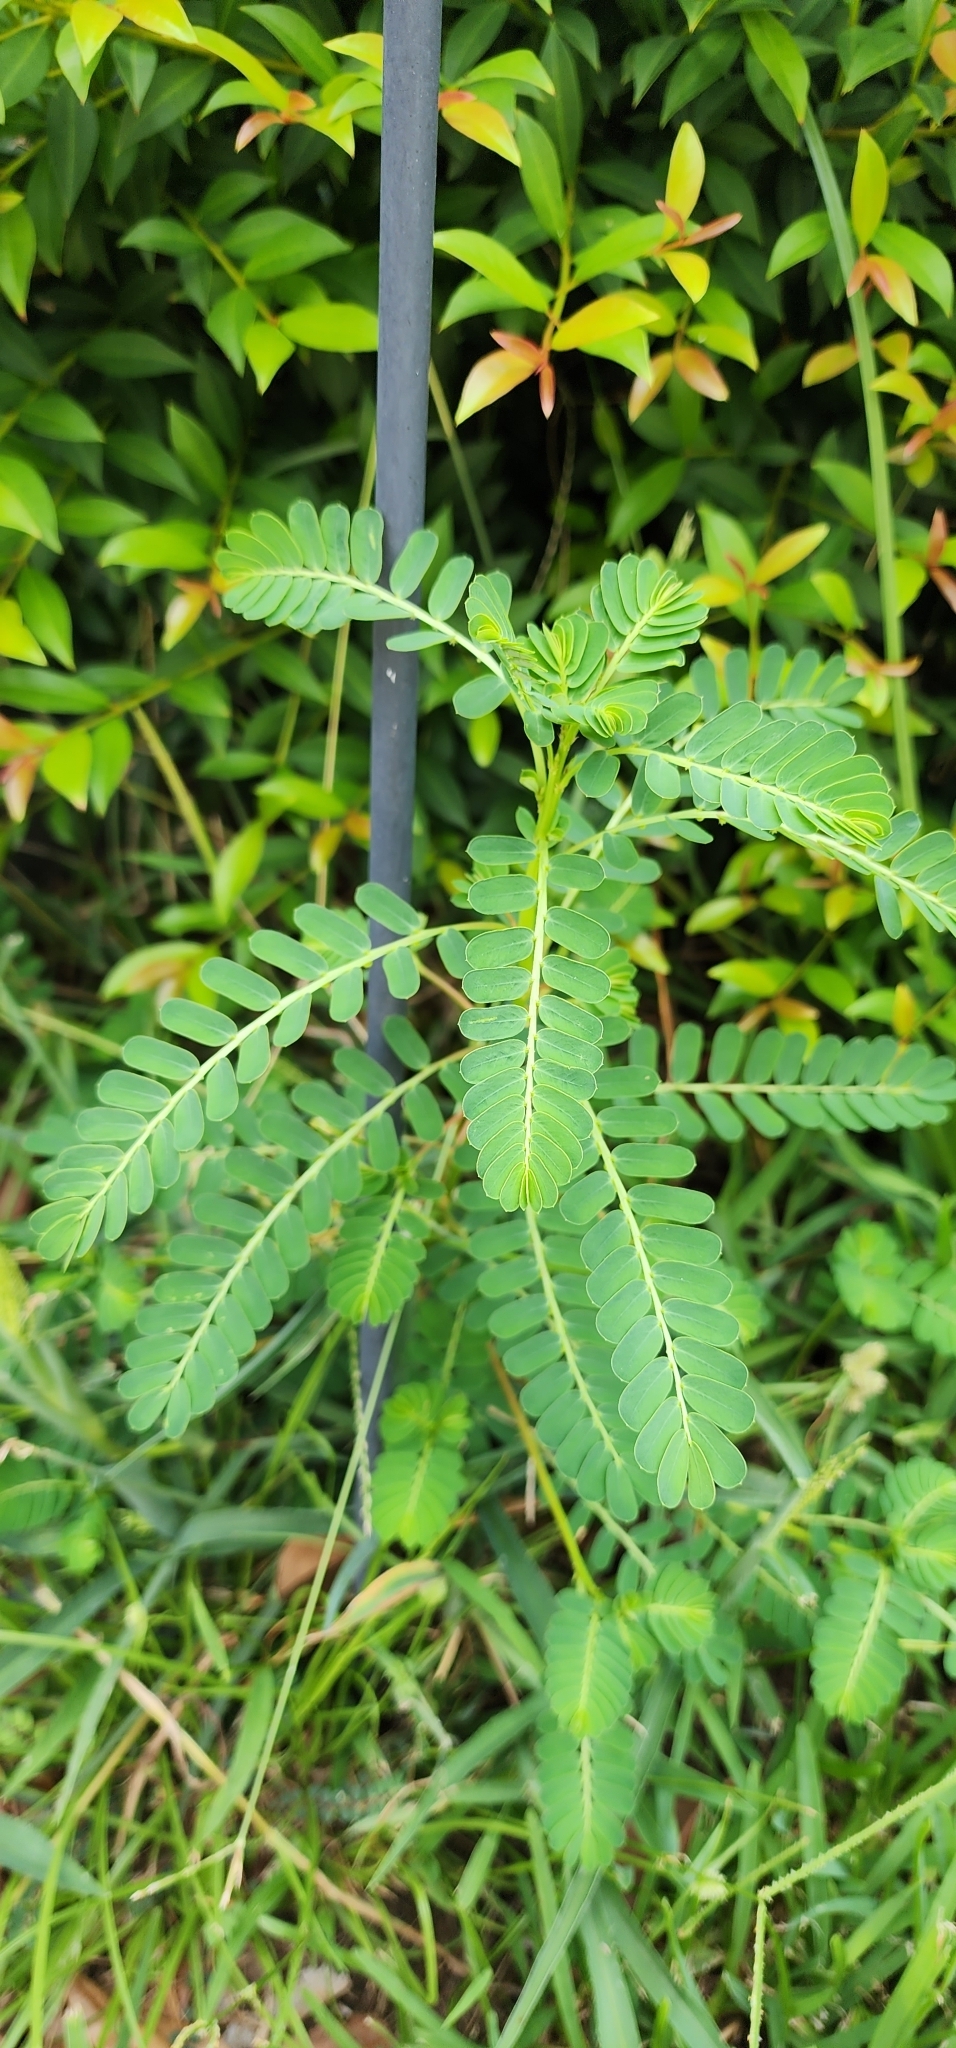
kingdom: Plantae
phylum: Tracheophyta
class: Magnoliopsida
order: Malpighiales
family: Phyllanthaceae
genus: Phyllanthus
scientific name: Phyllanthus urinaria
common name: Chamber bitter
